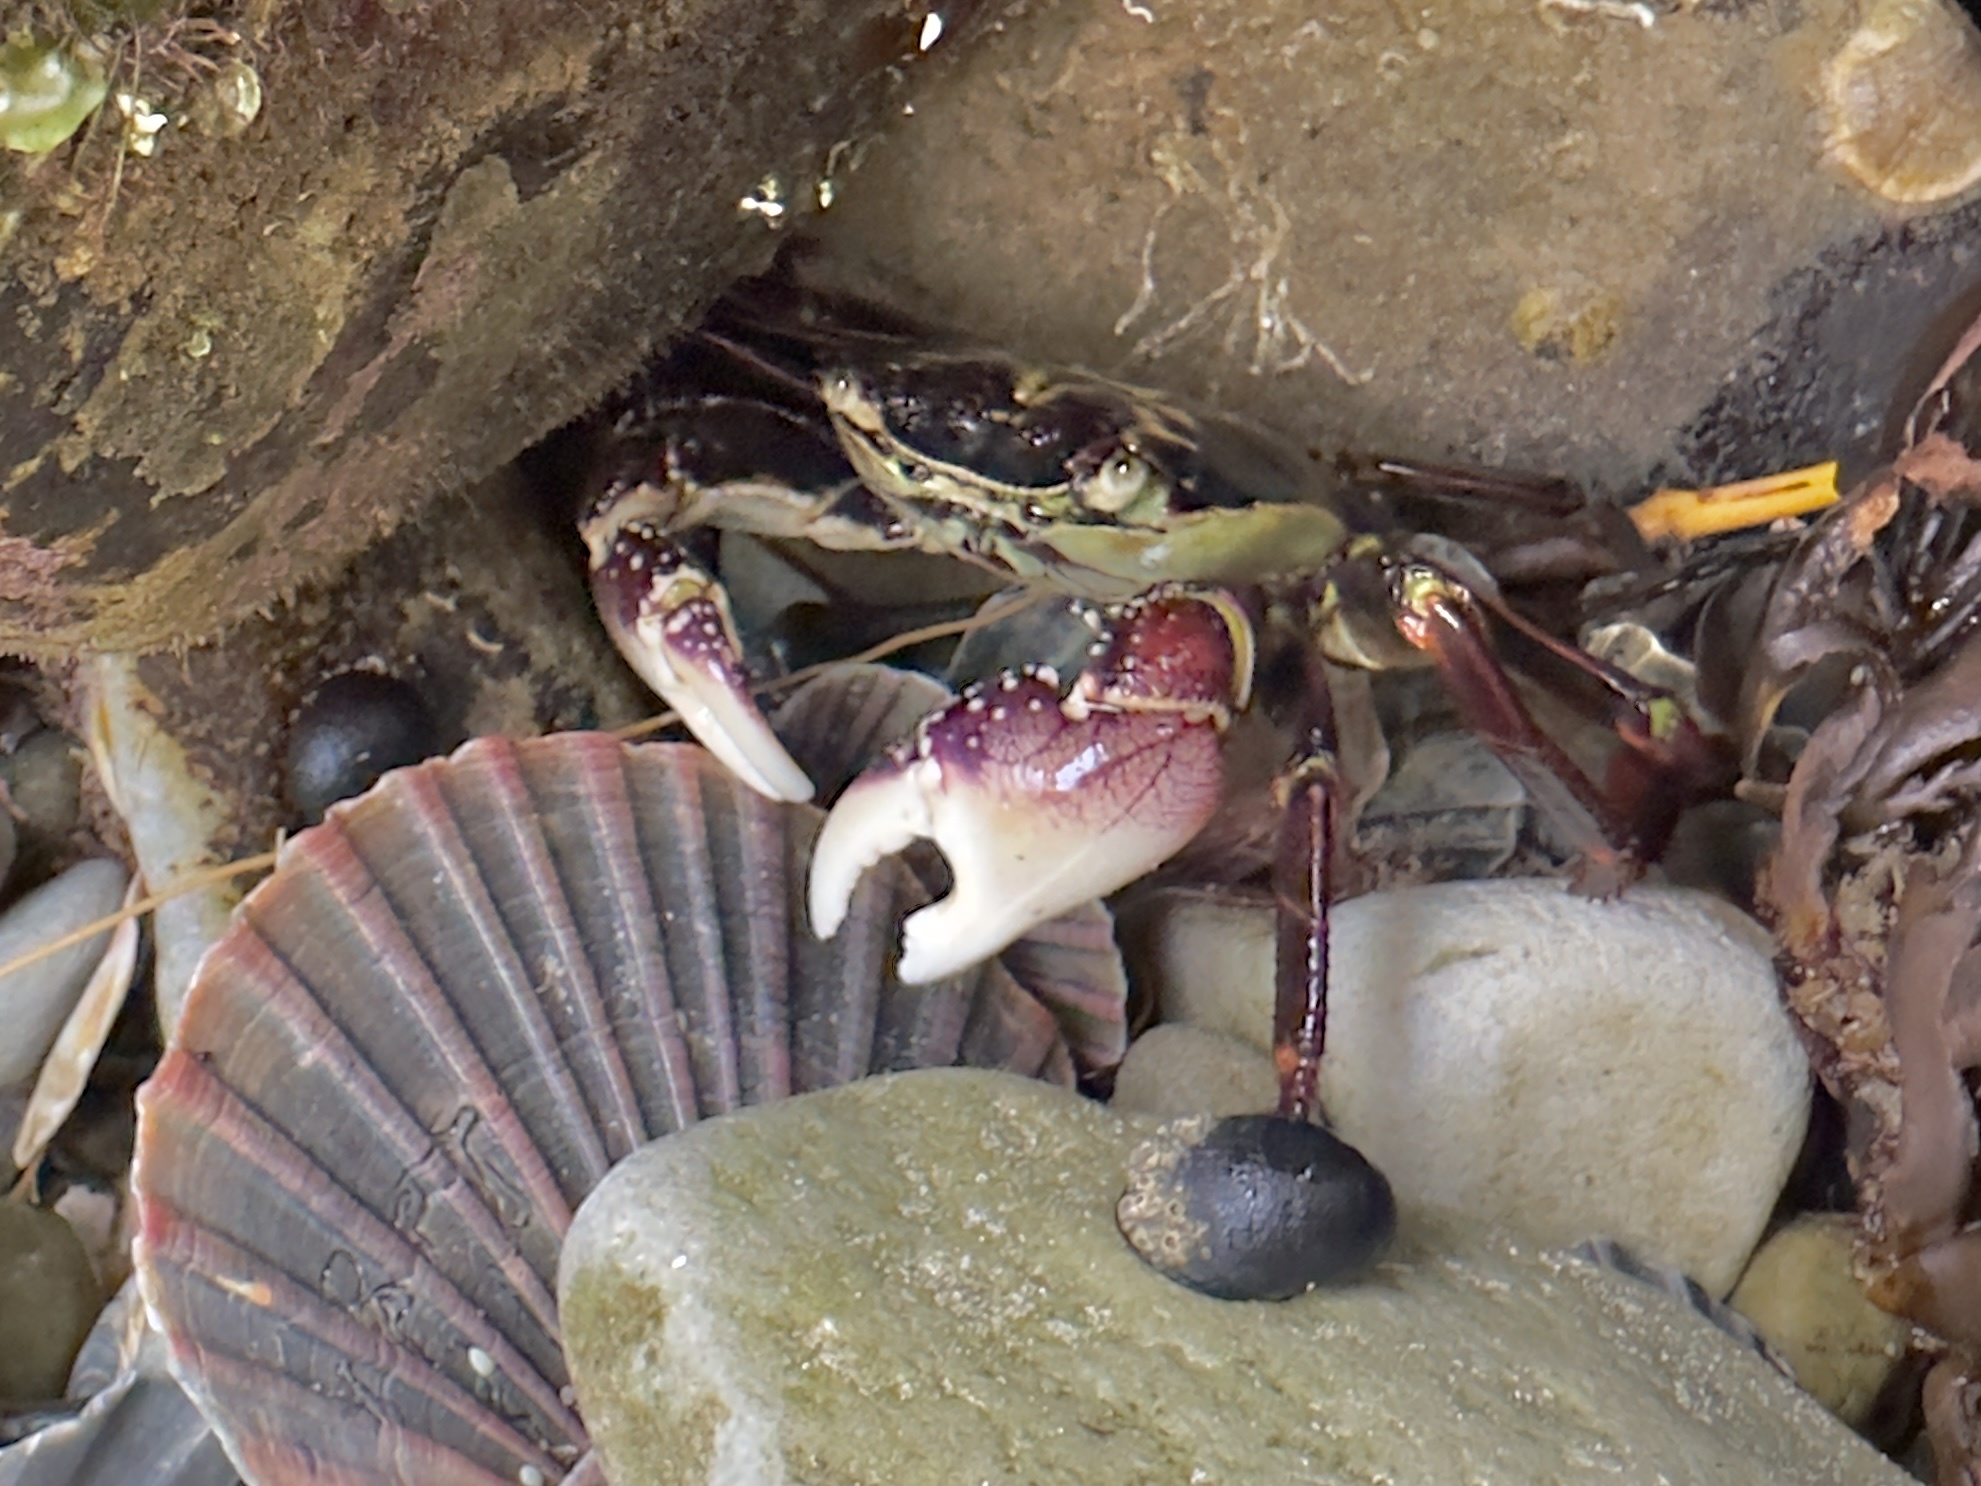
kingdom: Animalia
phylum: Arthropoda
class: Malacostraca
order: Decapoda
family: Grapsidae
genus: Leptograpsus
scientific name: Leptograpsus variegatus
